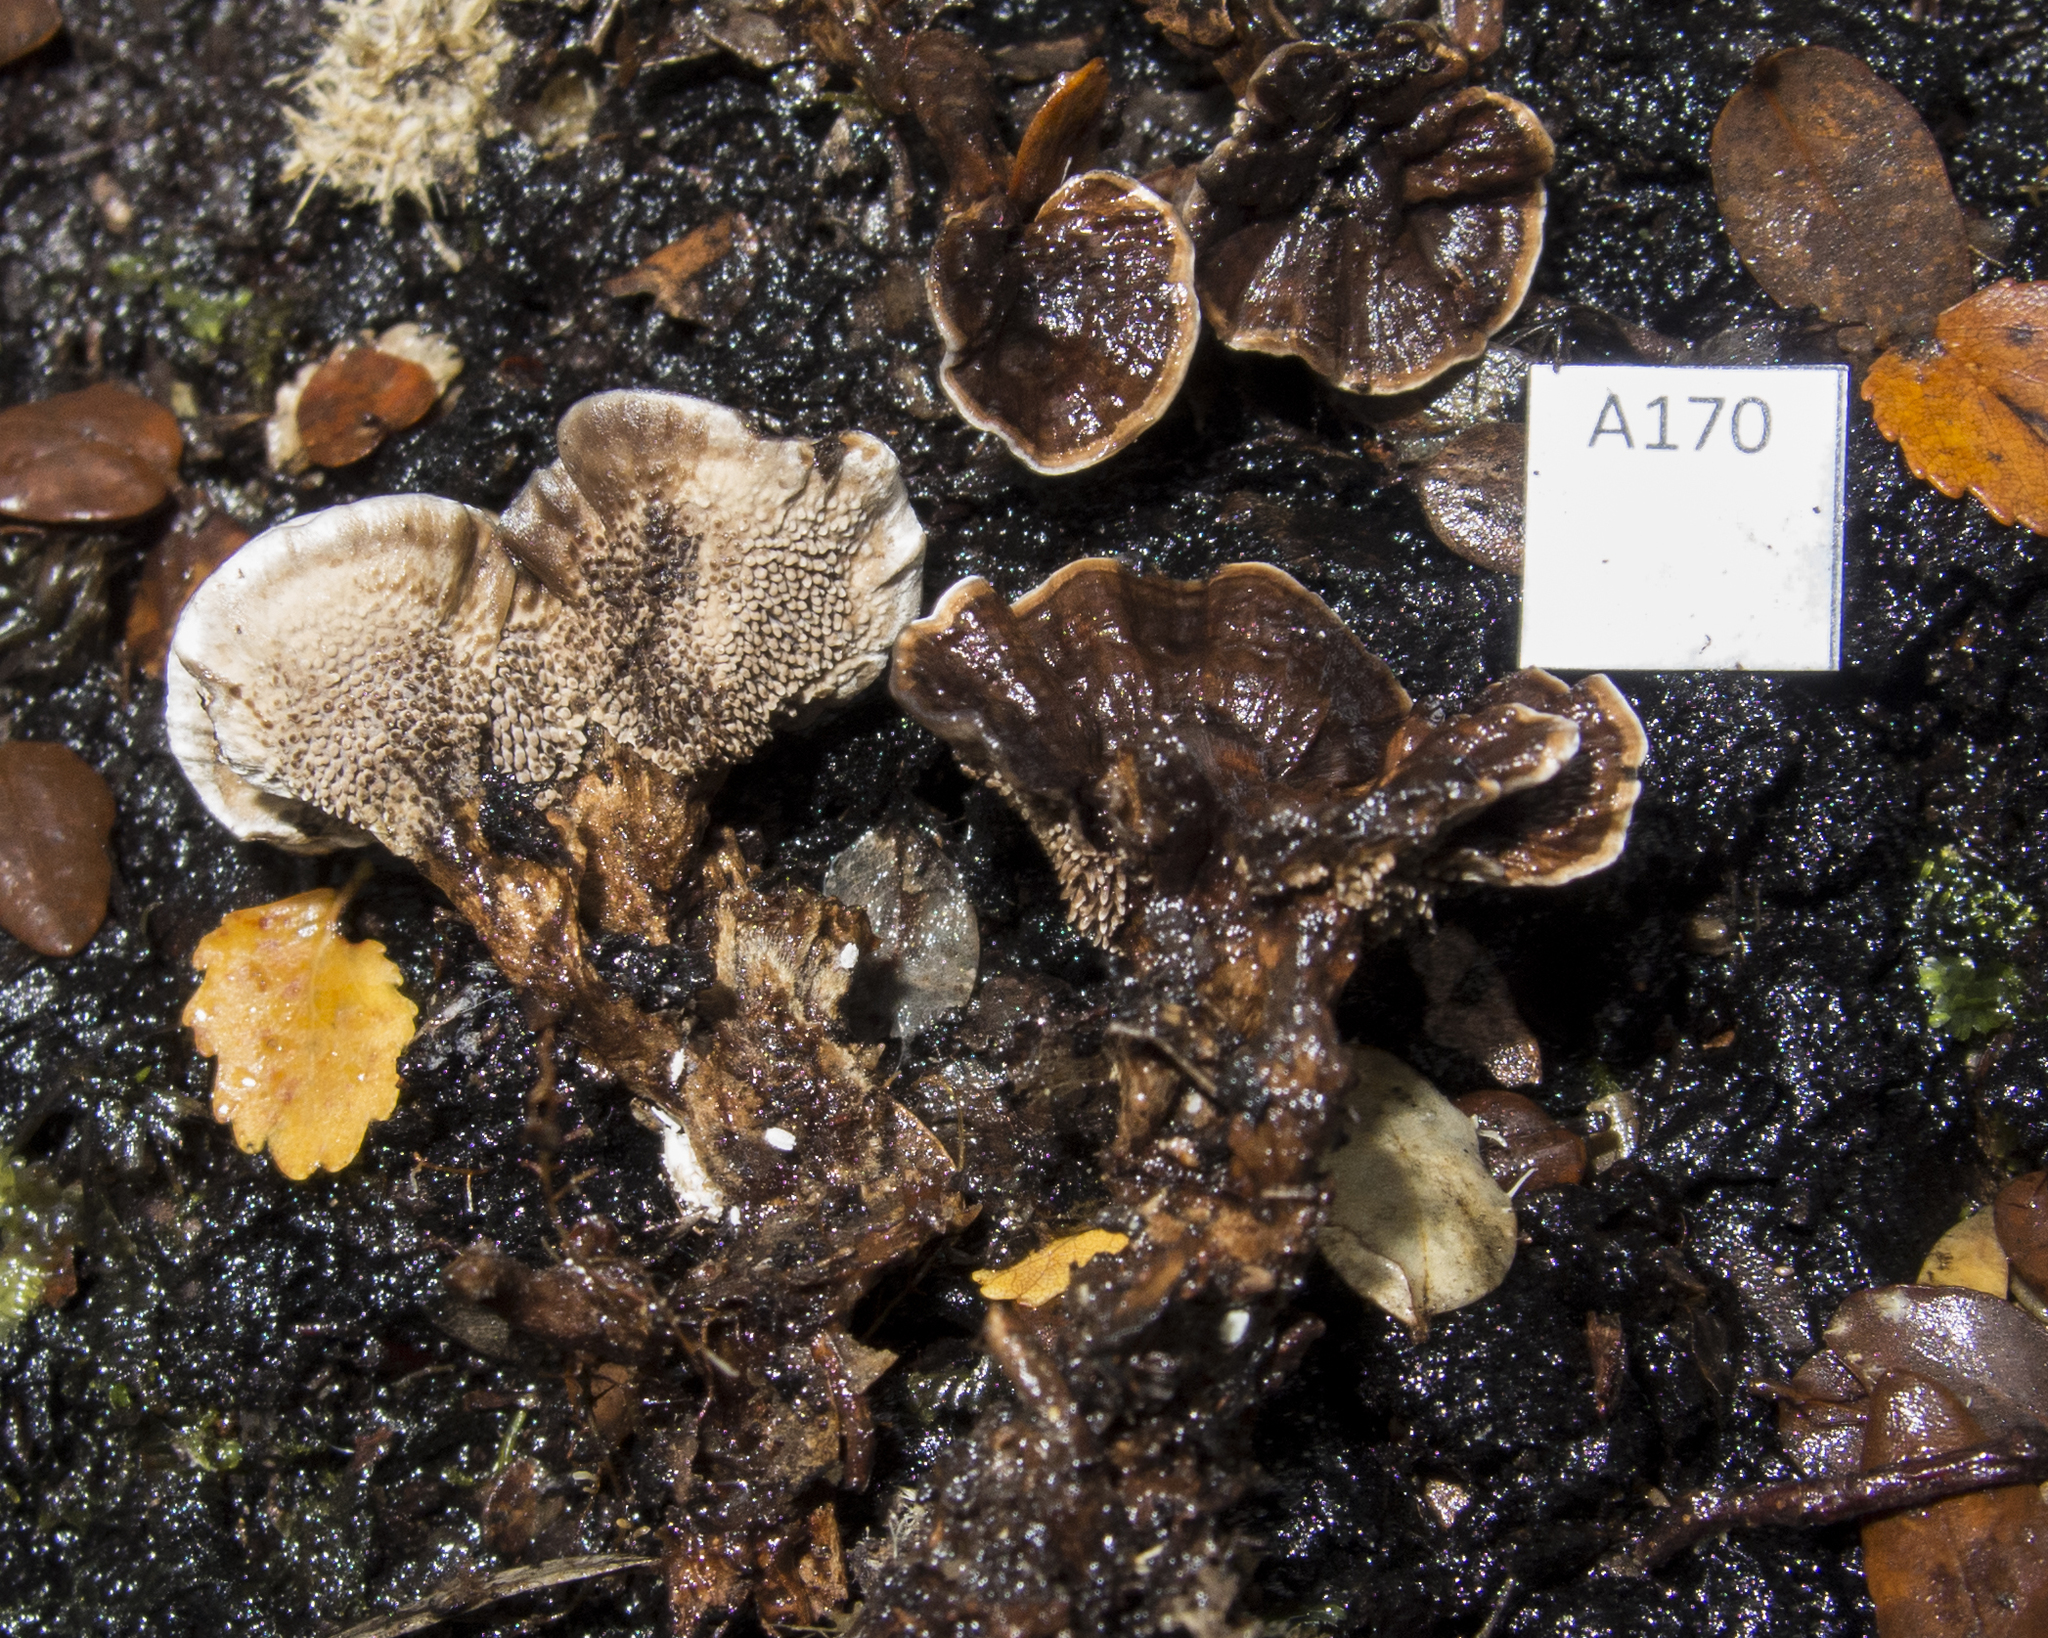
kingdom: Fungi
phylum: Basidiomycota
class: Agaricomycetes
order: Thelephorales
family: Thelephoraceae
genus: Phellodon
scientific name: Phellodon plicatus
